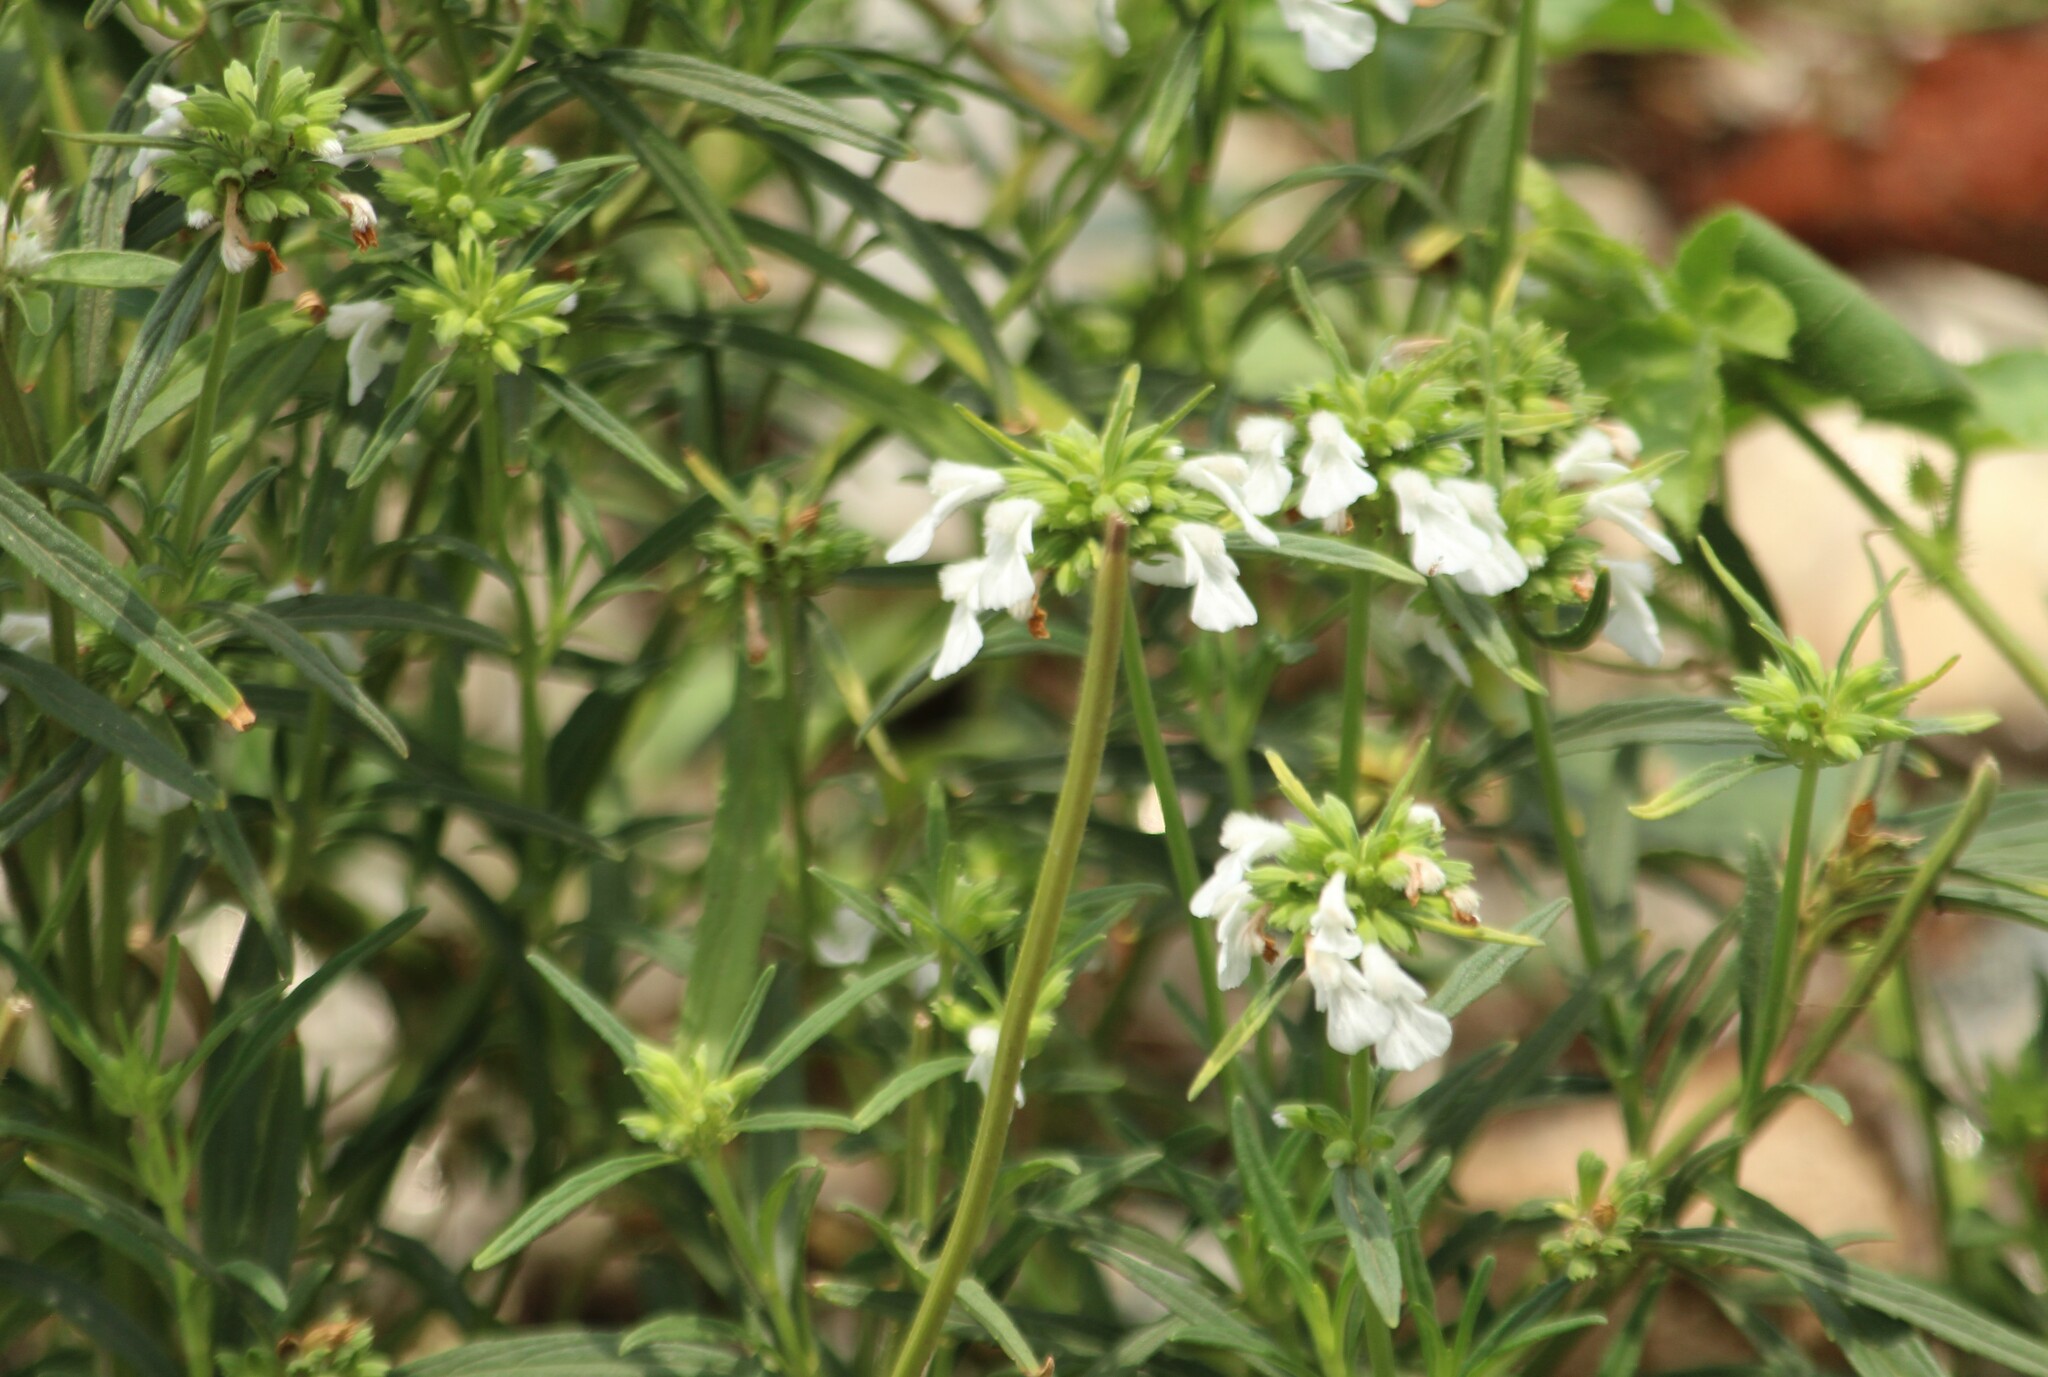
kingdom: Plantae
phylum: Tracheophyta
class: Magnoliopsida
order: Lamiales
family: Lamiaceae
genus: Leucas
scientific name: Leucas aspera
